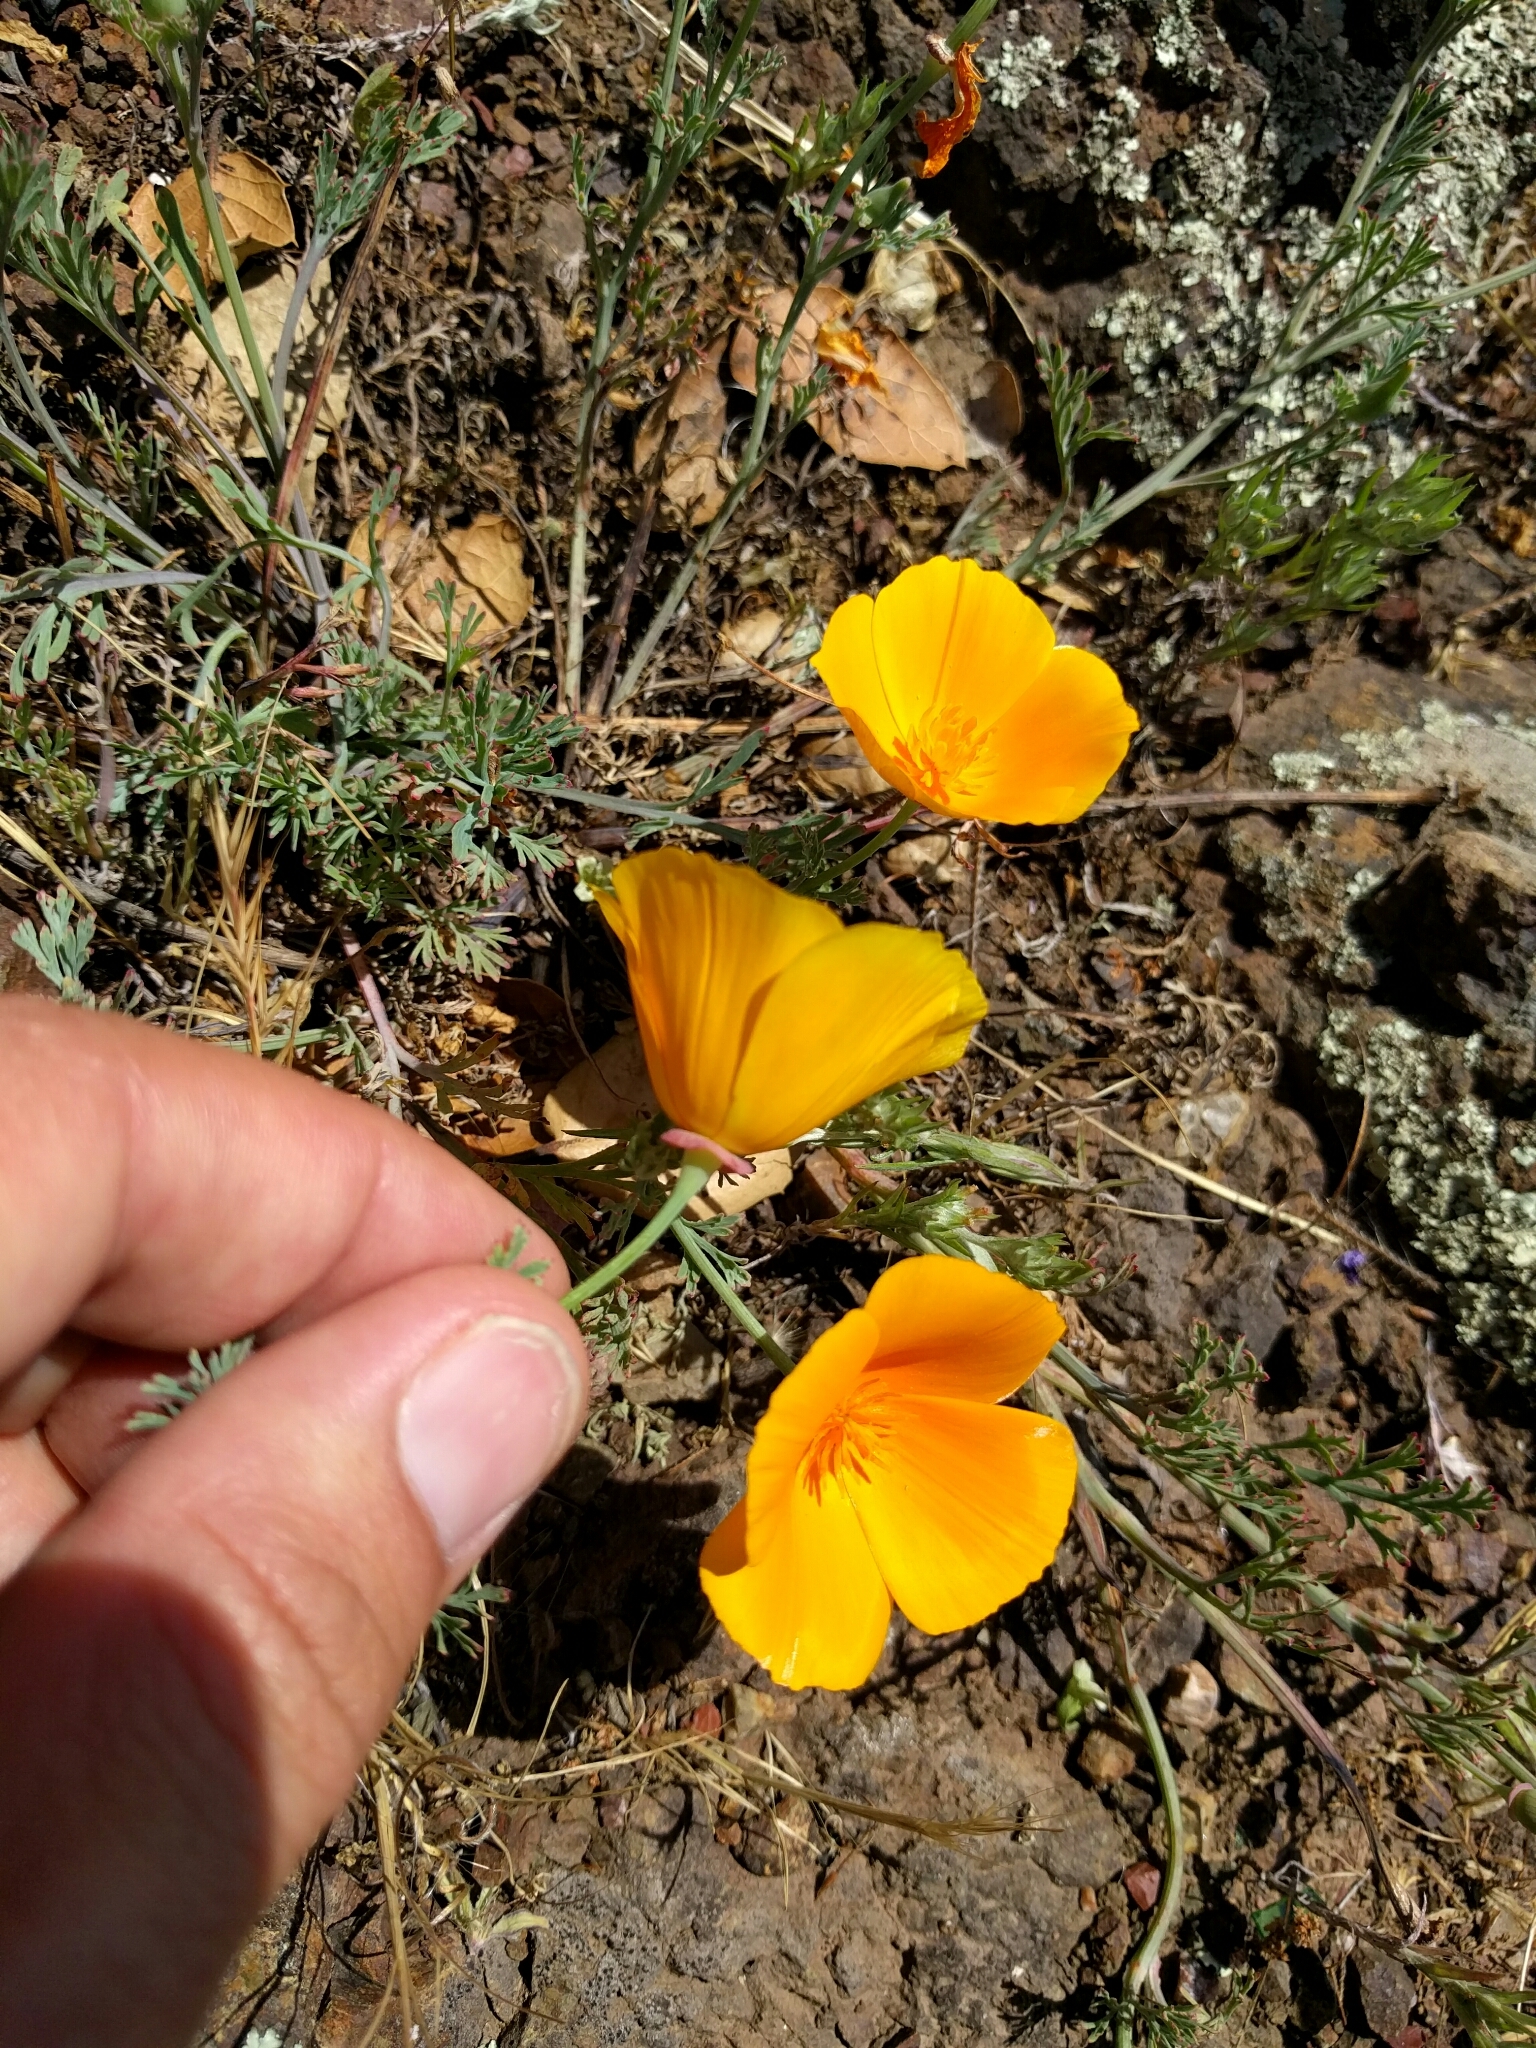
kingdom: Plantae
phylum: Tracheophyta
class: Magnoliopsida
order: Ranunculales
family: Papaveraceae
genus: Eschscholzia
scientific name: Eschscholzia californica
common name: California poppy
